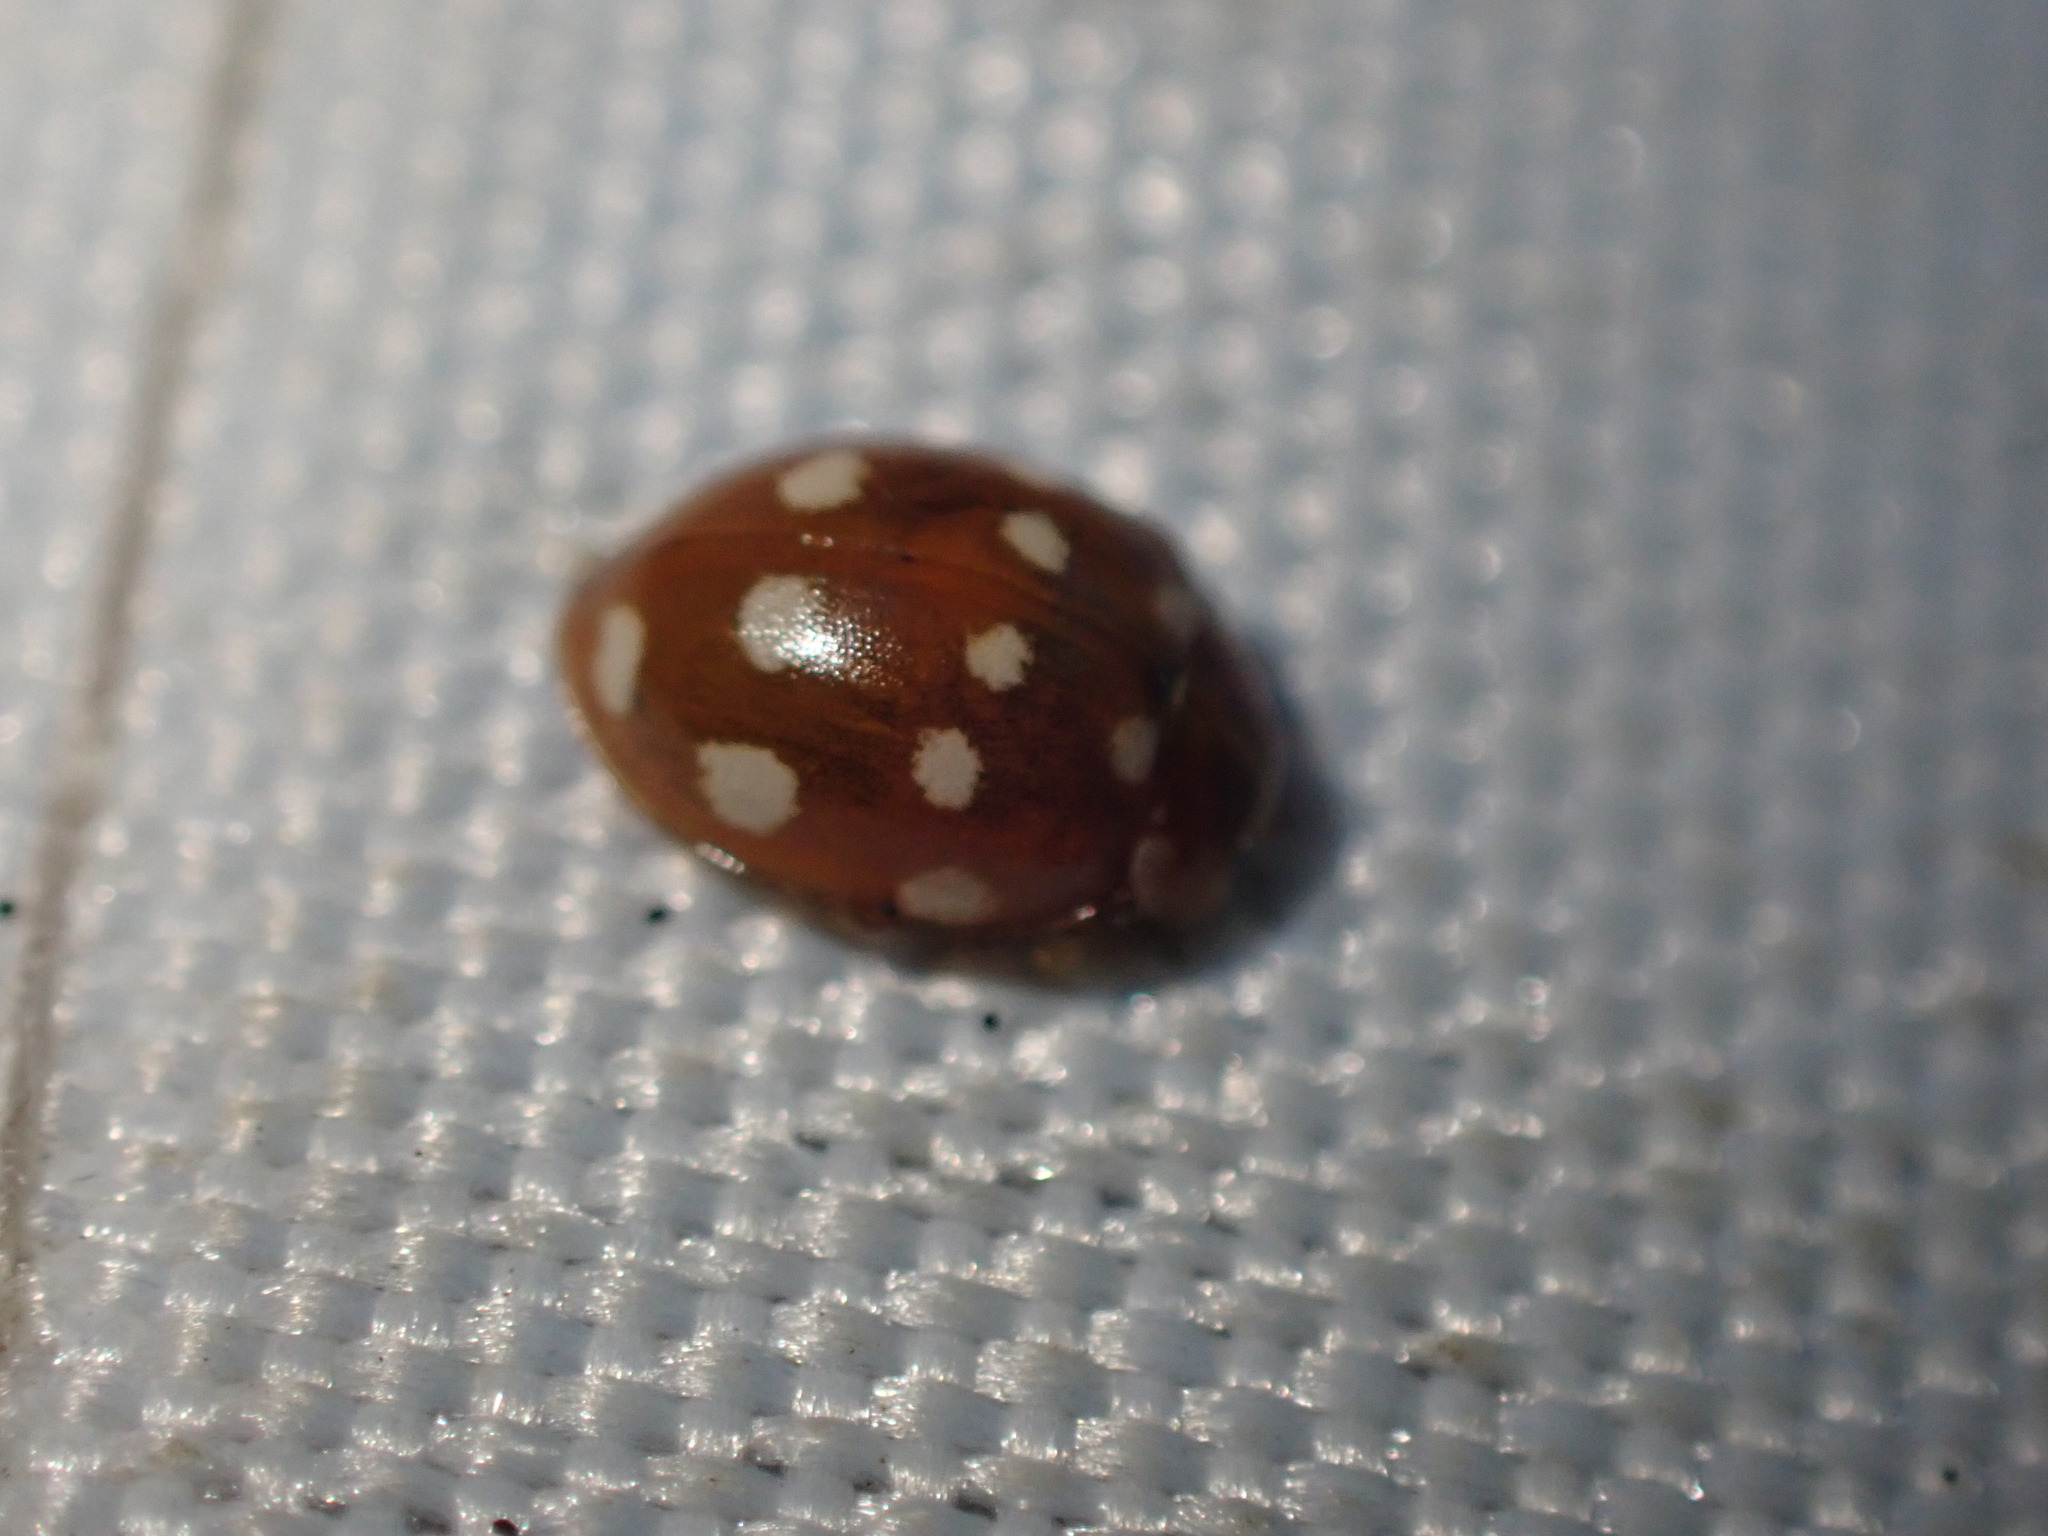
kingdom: Animalia
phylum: Arthropoda
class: Insecta
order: Coleoptera
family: Coccinellidae
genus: Calvia
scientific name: Calvia quatuordecimguttata
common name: Cream-spot ladybird
